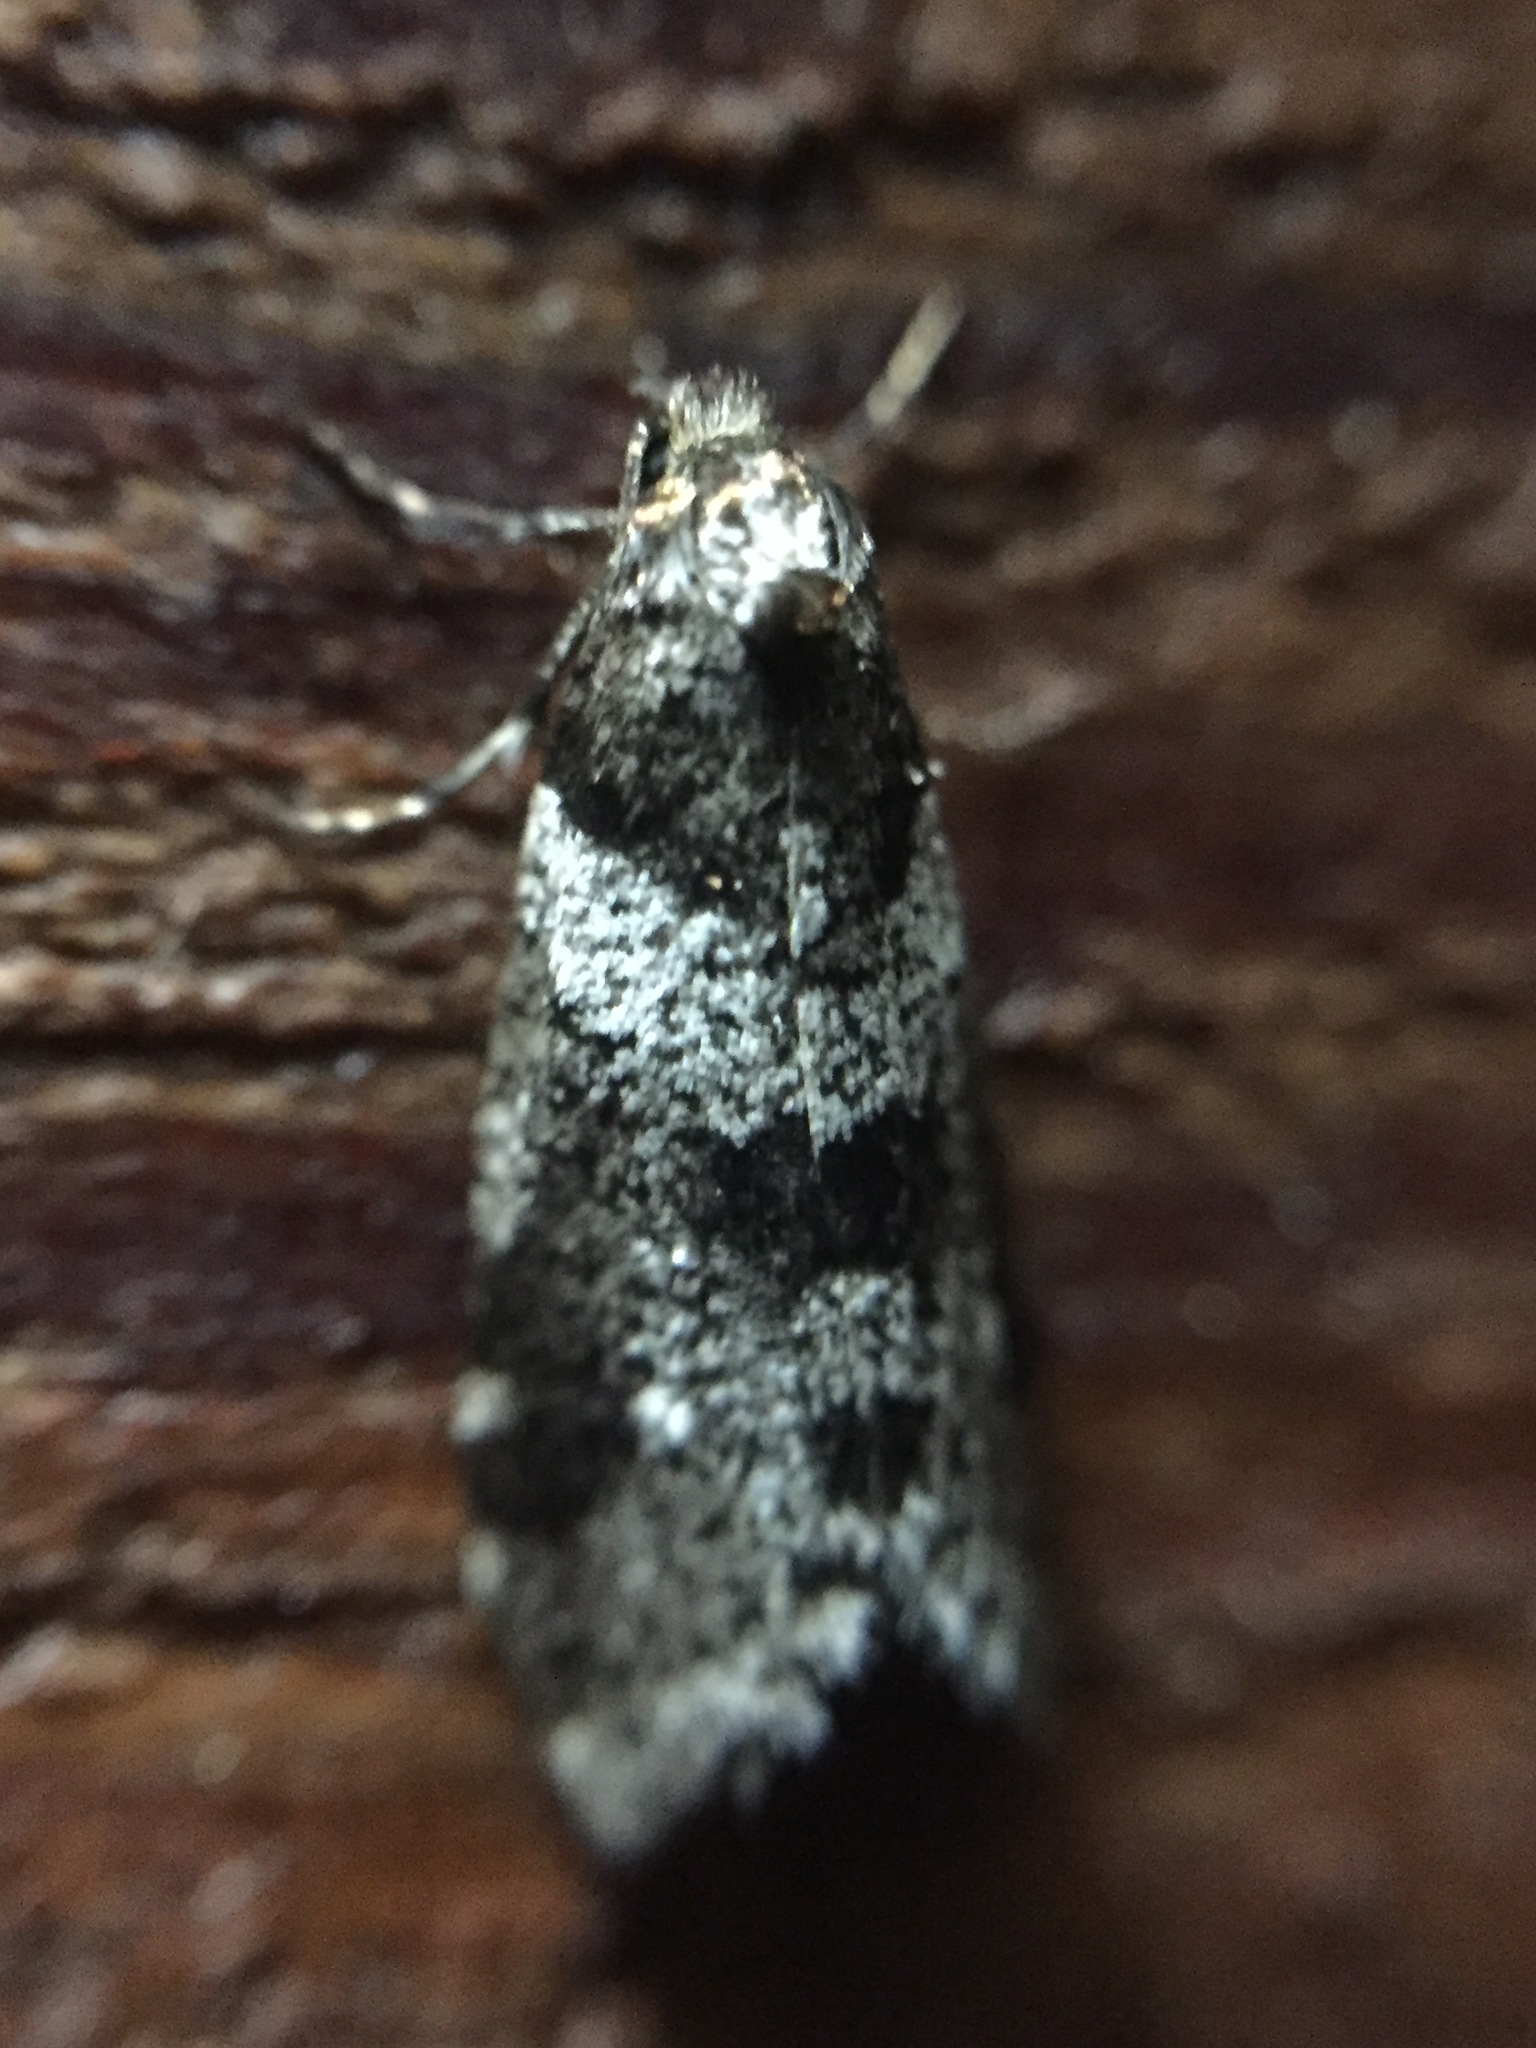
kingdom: Animalia
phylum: Arthropoda
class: Insecta
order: Lepidoptera
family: Psychidae
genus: Lepidoscia
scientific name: Lepidoscia heliochares
